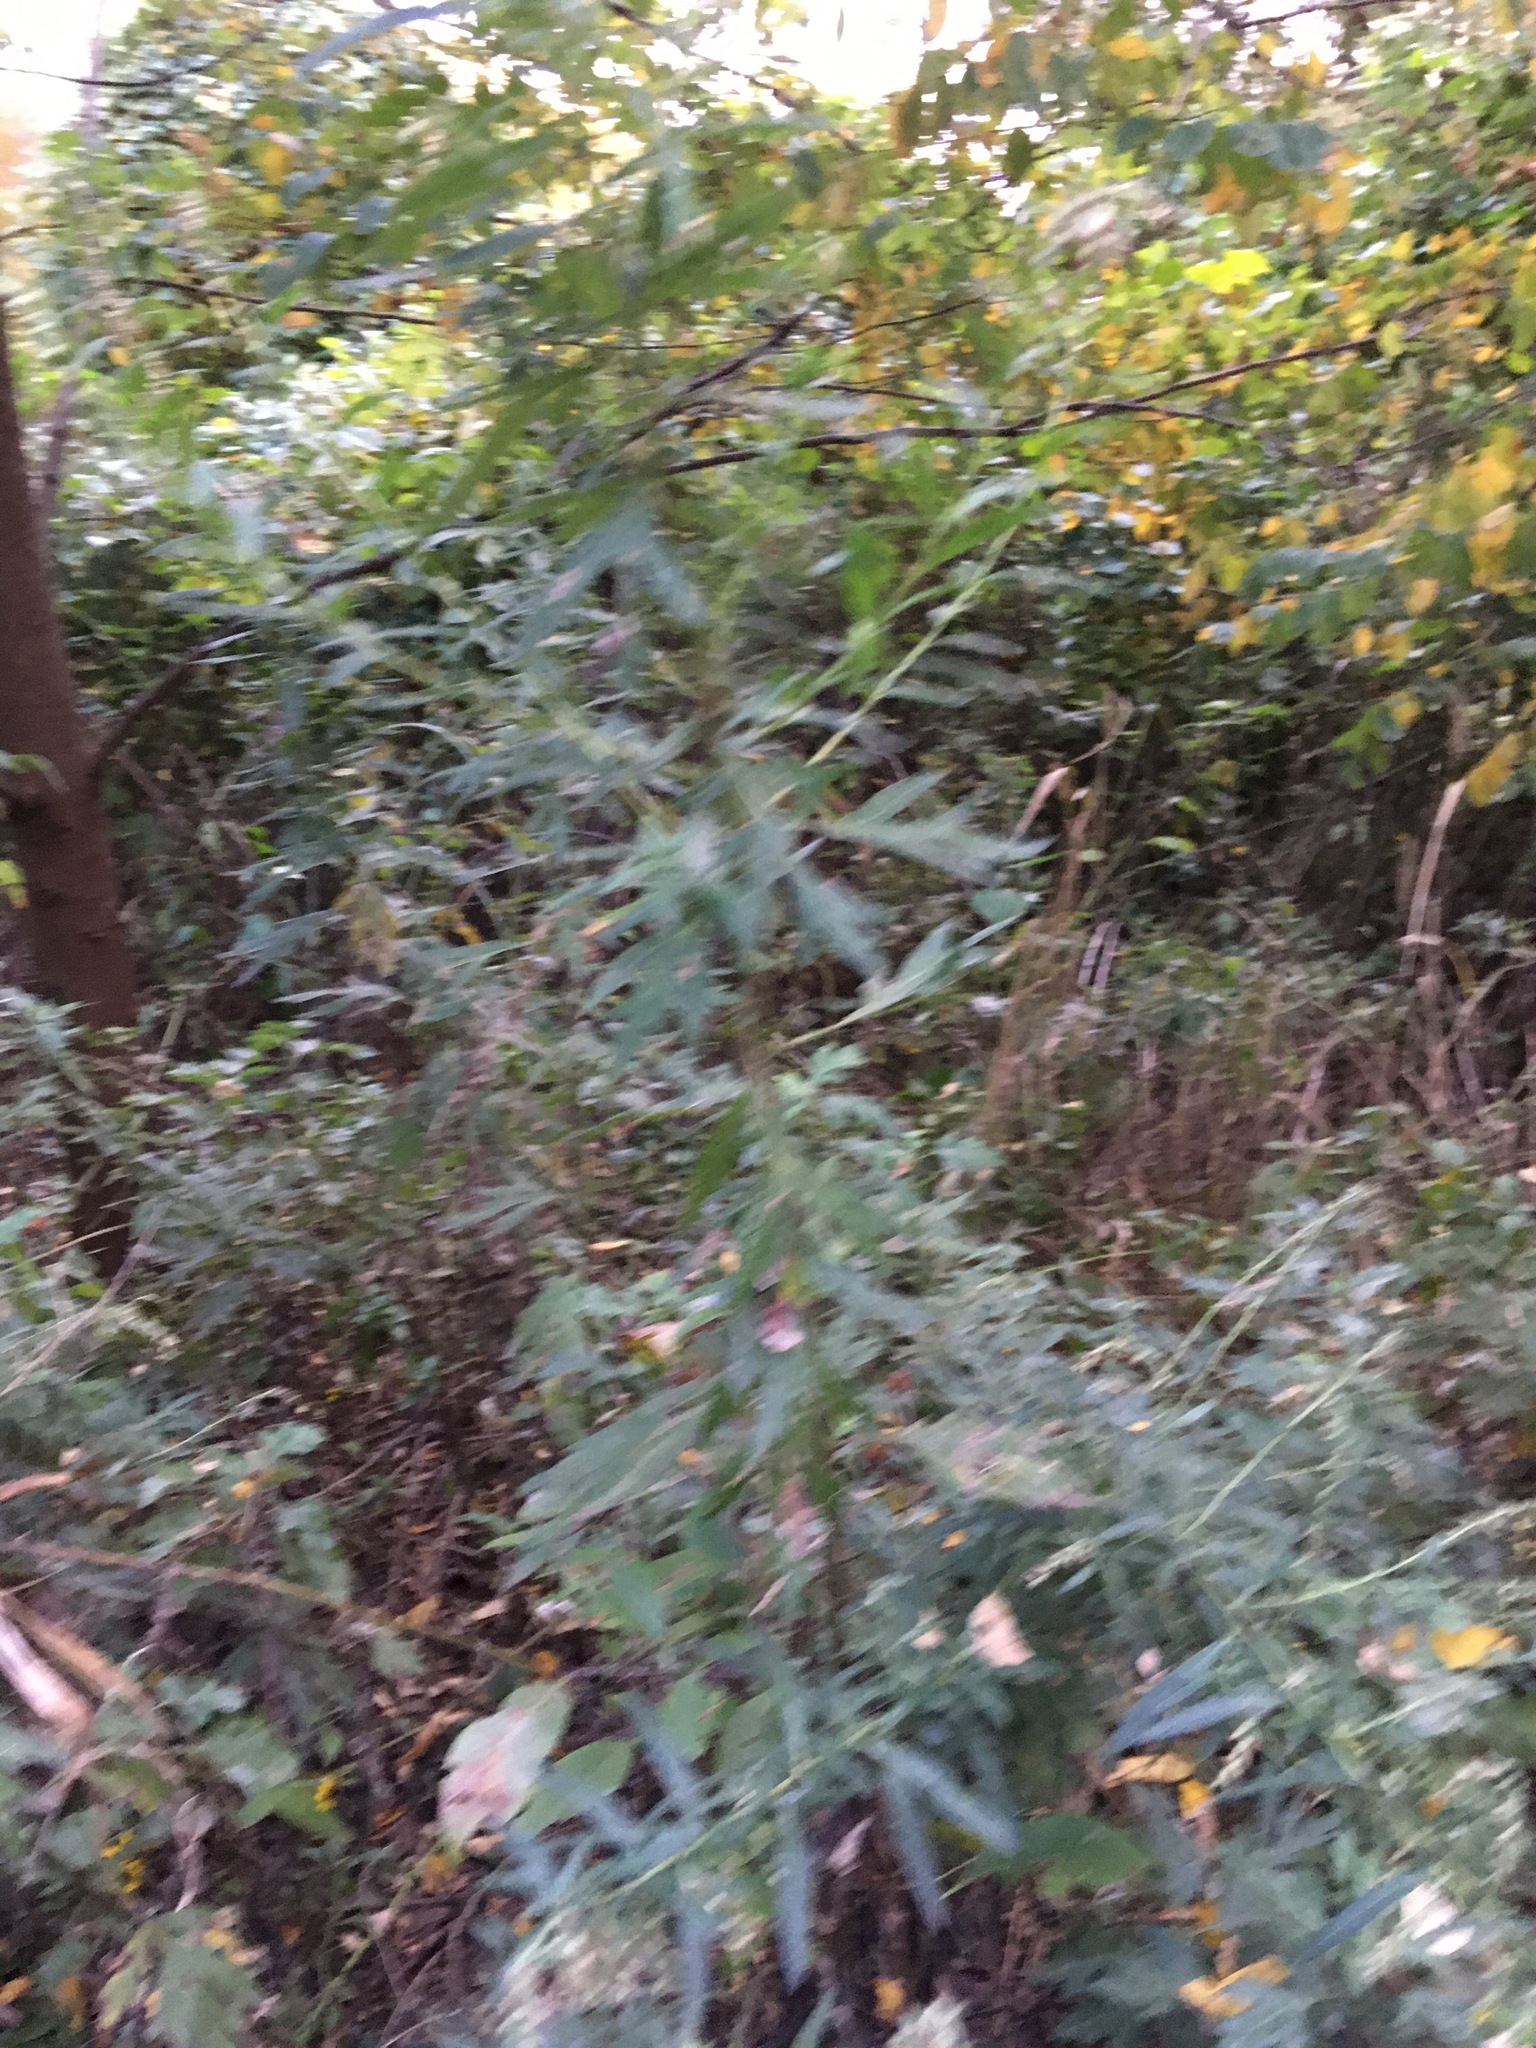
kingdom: Plantae
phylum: Tracheophyta
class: Magnoliopsida
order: Asterales
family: Asteraceae
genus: Artemisia
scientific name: Artemisia vulgaris
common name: Mugwort
